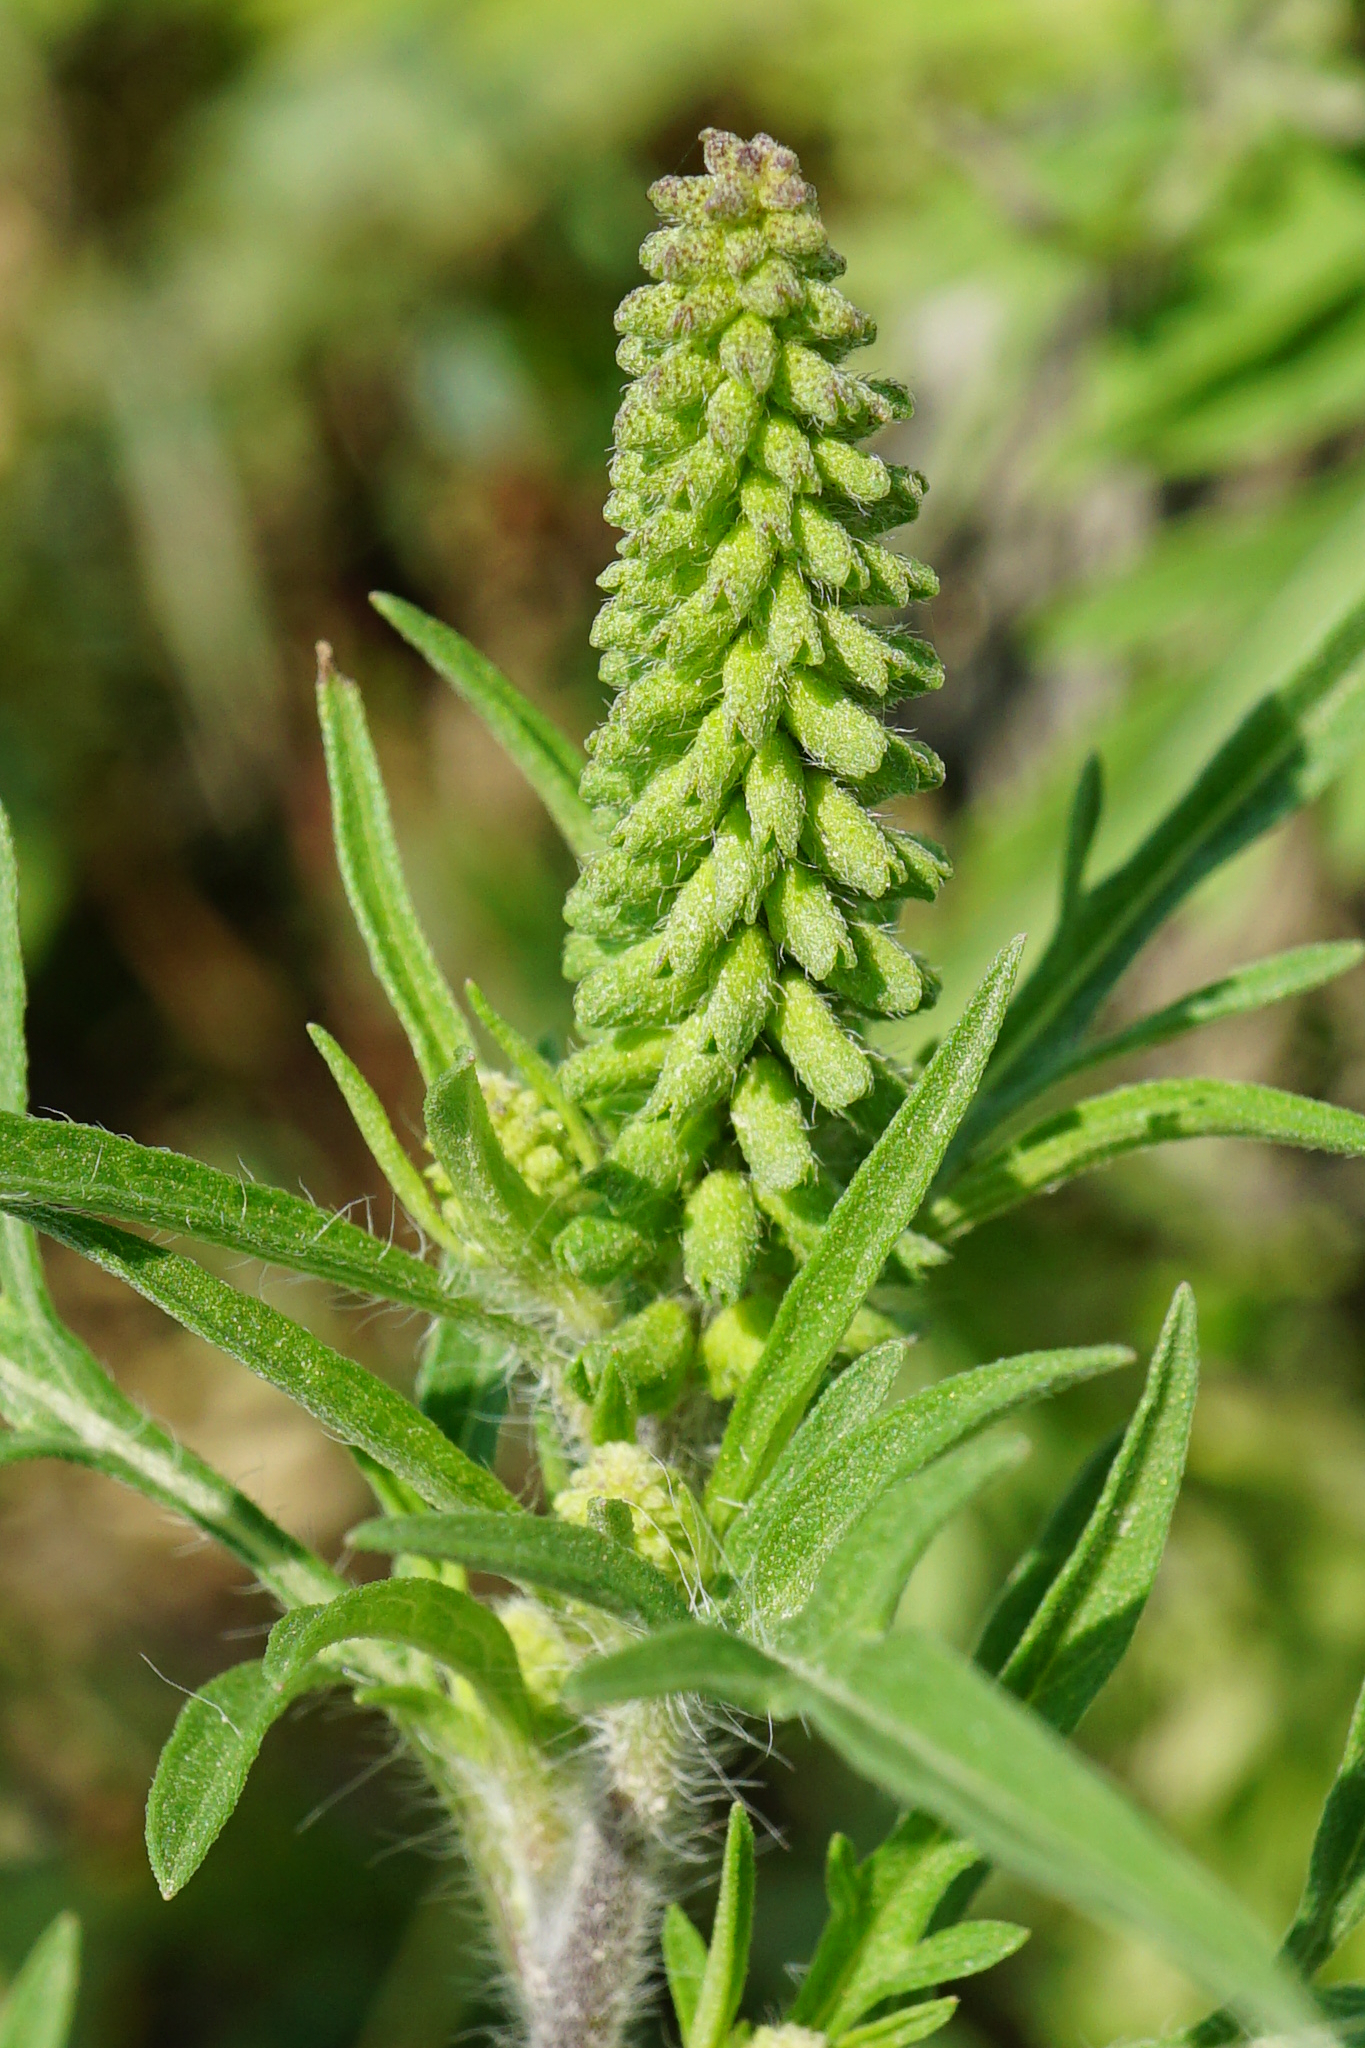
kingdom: Plantae
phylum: Tracheophyta
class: Magnoliopsida
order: Asterales
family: Asteraceae
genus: Ambrosia
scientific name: Ambrosia artemisiifolia
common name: Annual ragweed
